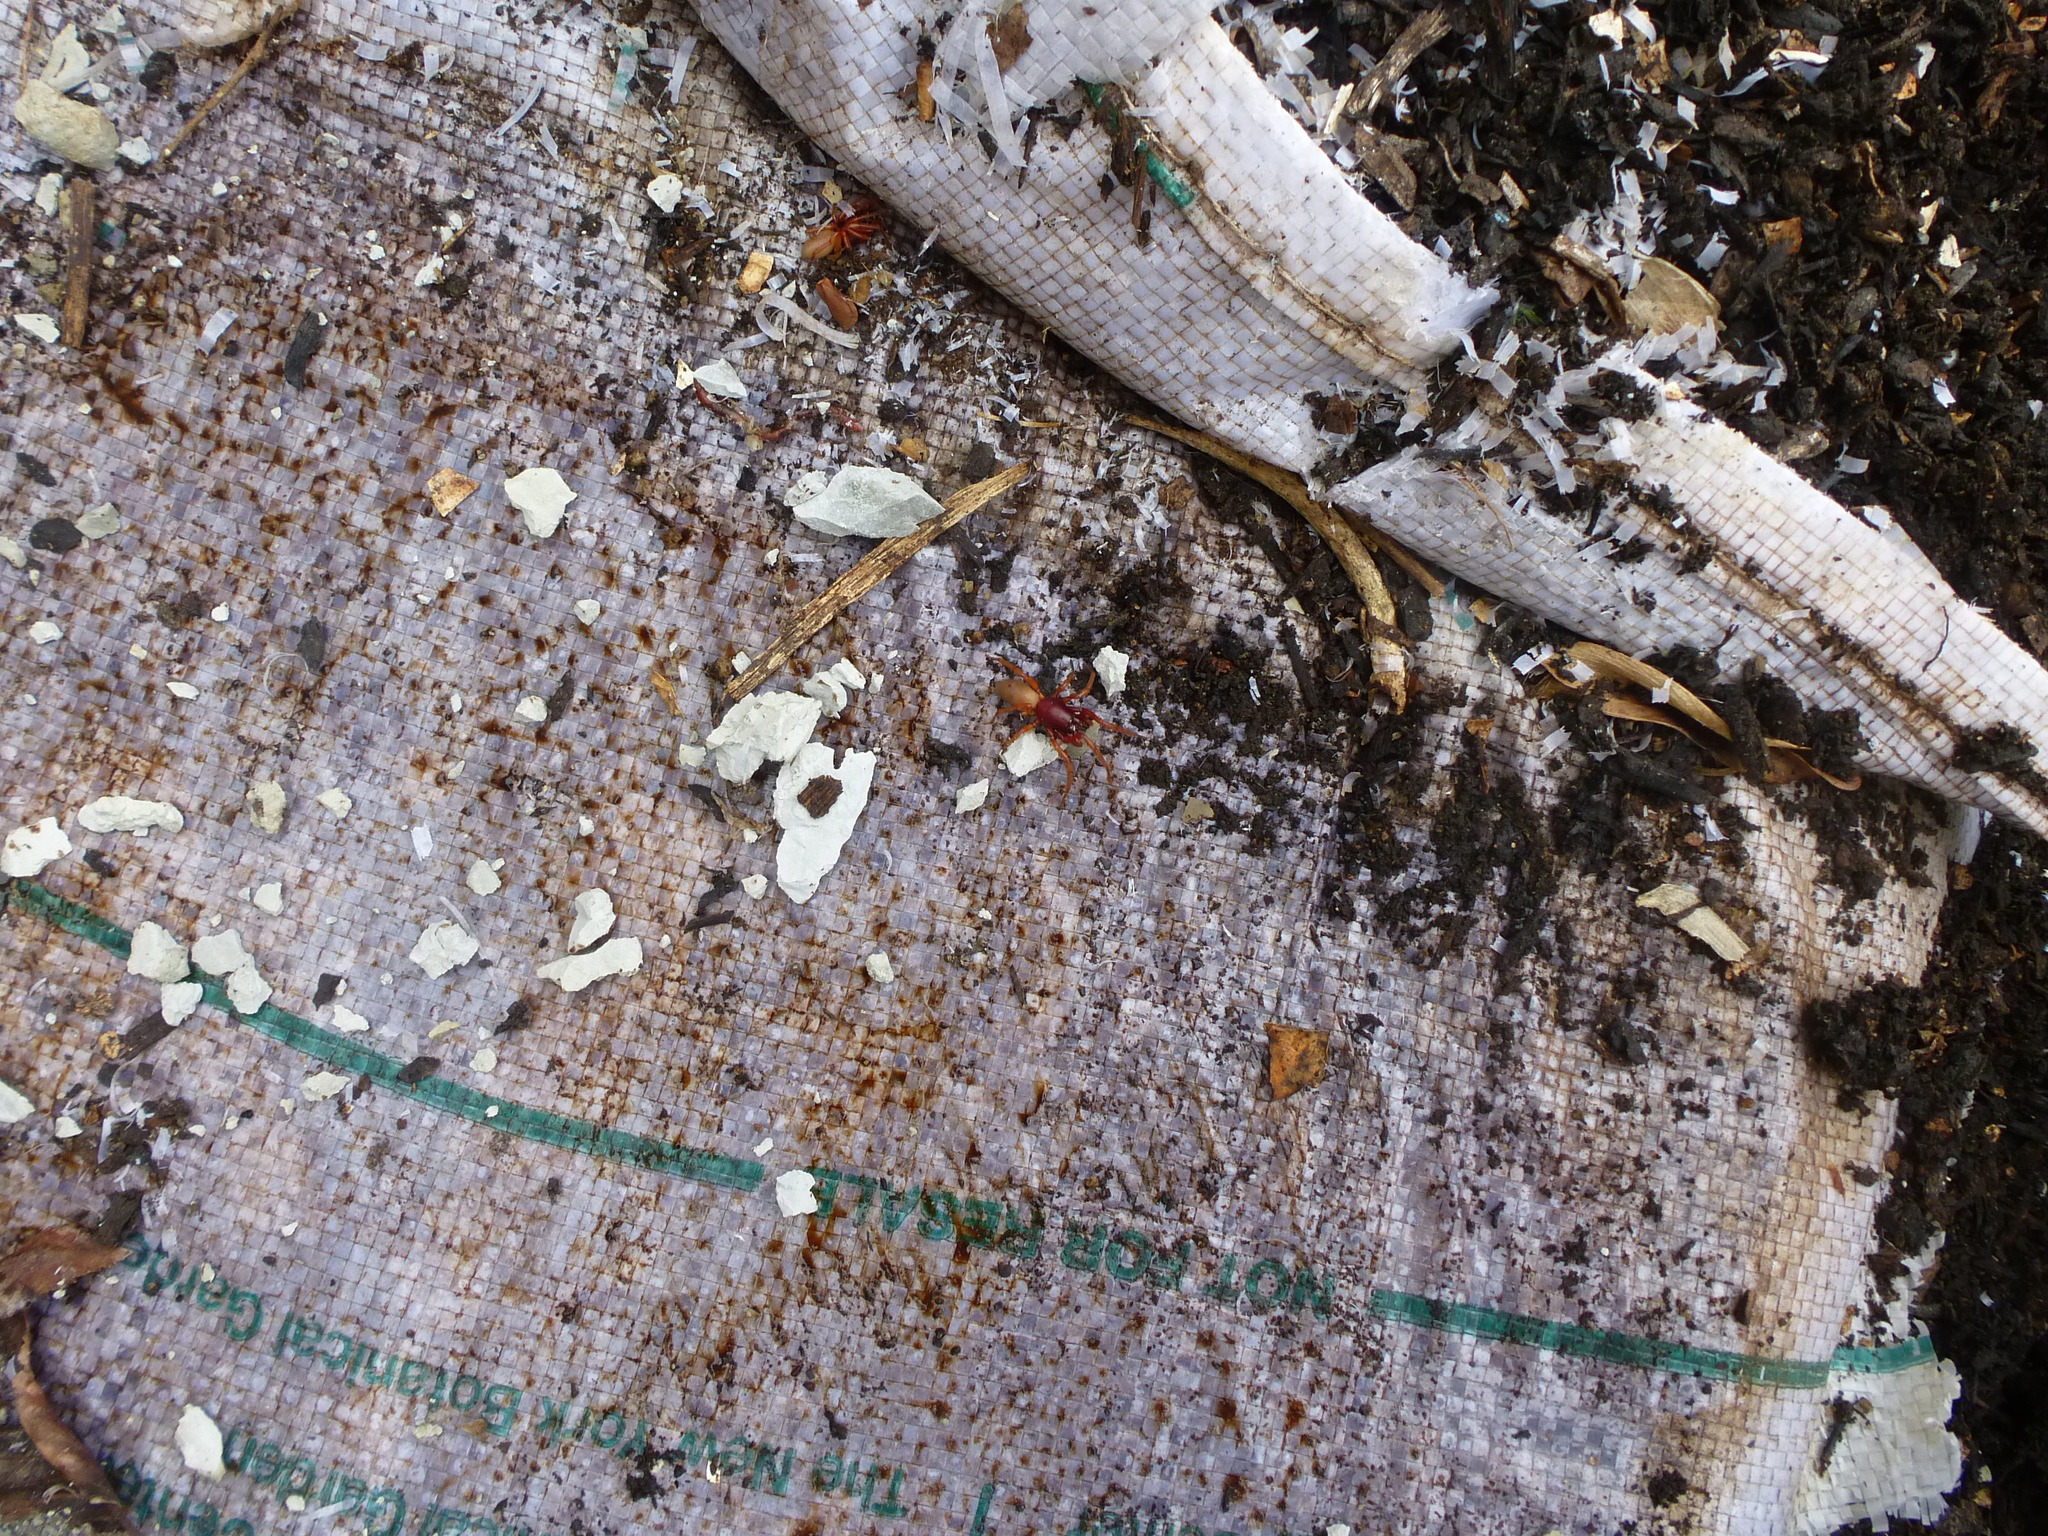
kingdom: Animalia
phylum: Arthropoda
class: Arachnida
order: Araneae
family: Dysderidae
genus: Dysdera
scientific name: Dysdera crocata
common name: Woodlouse spider
